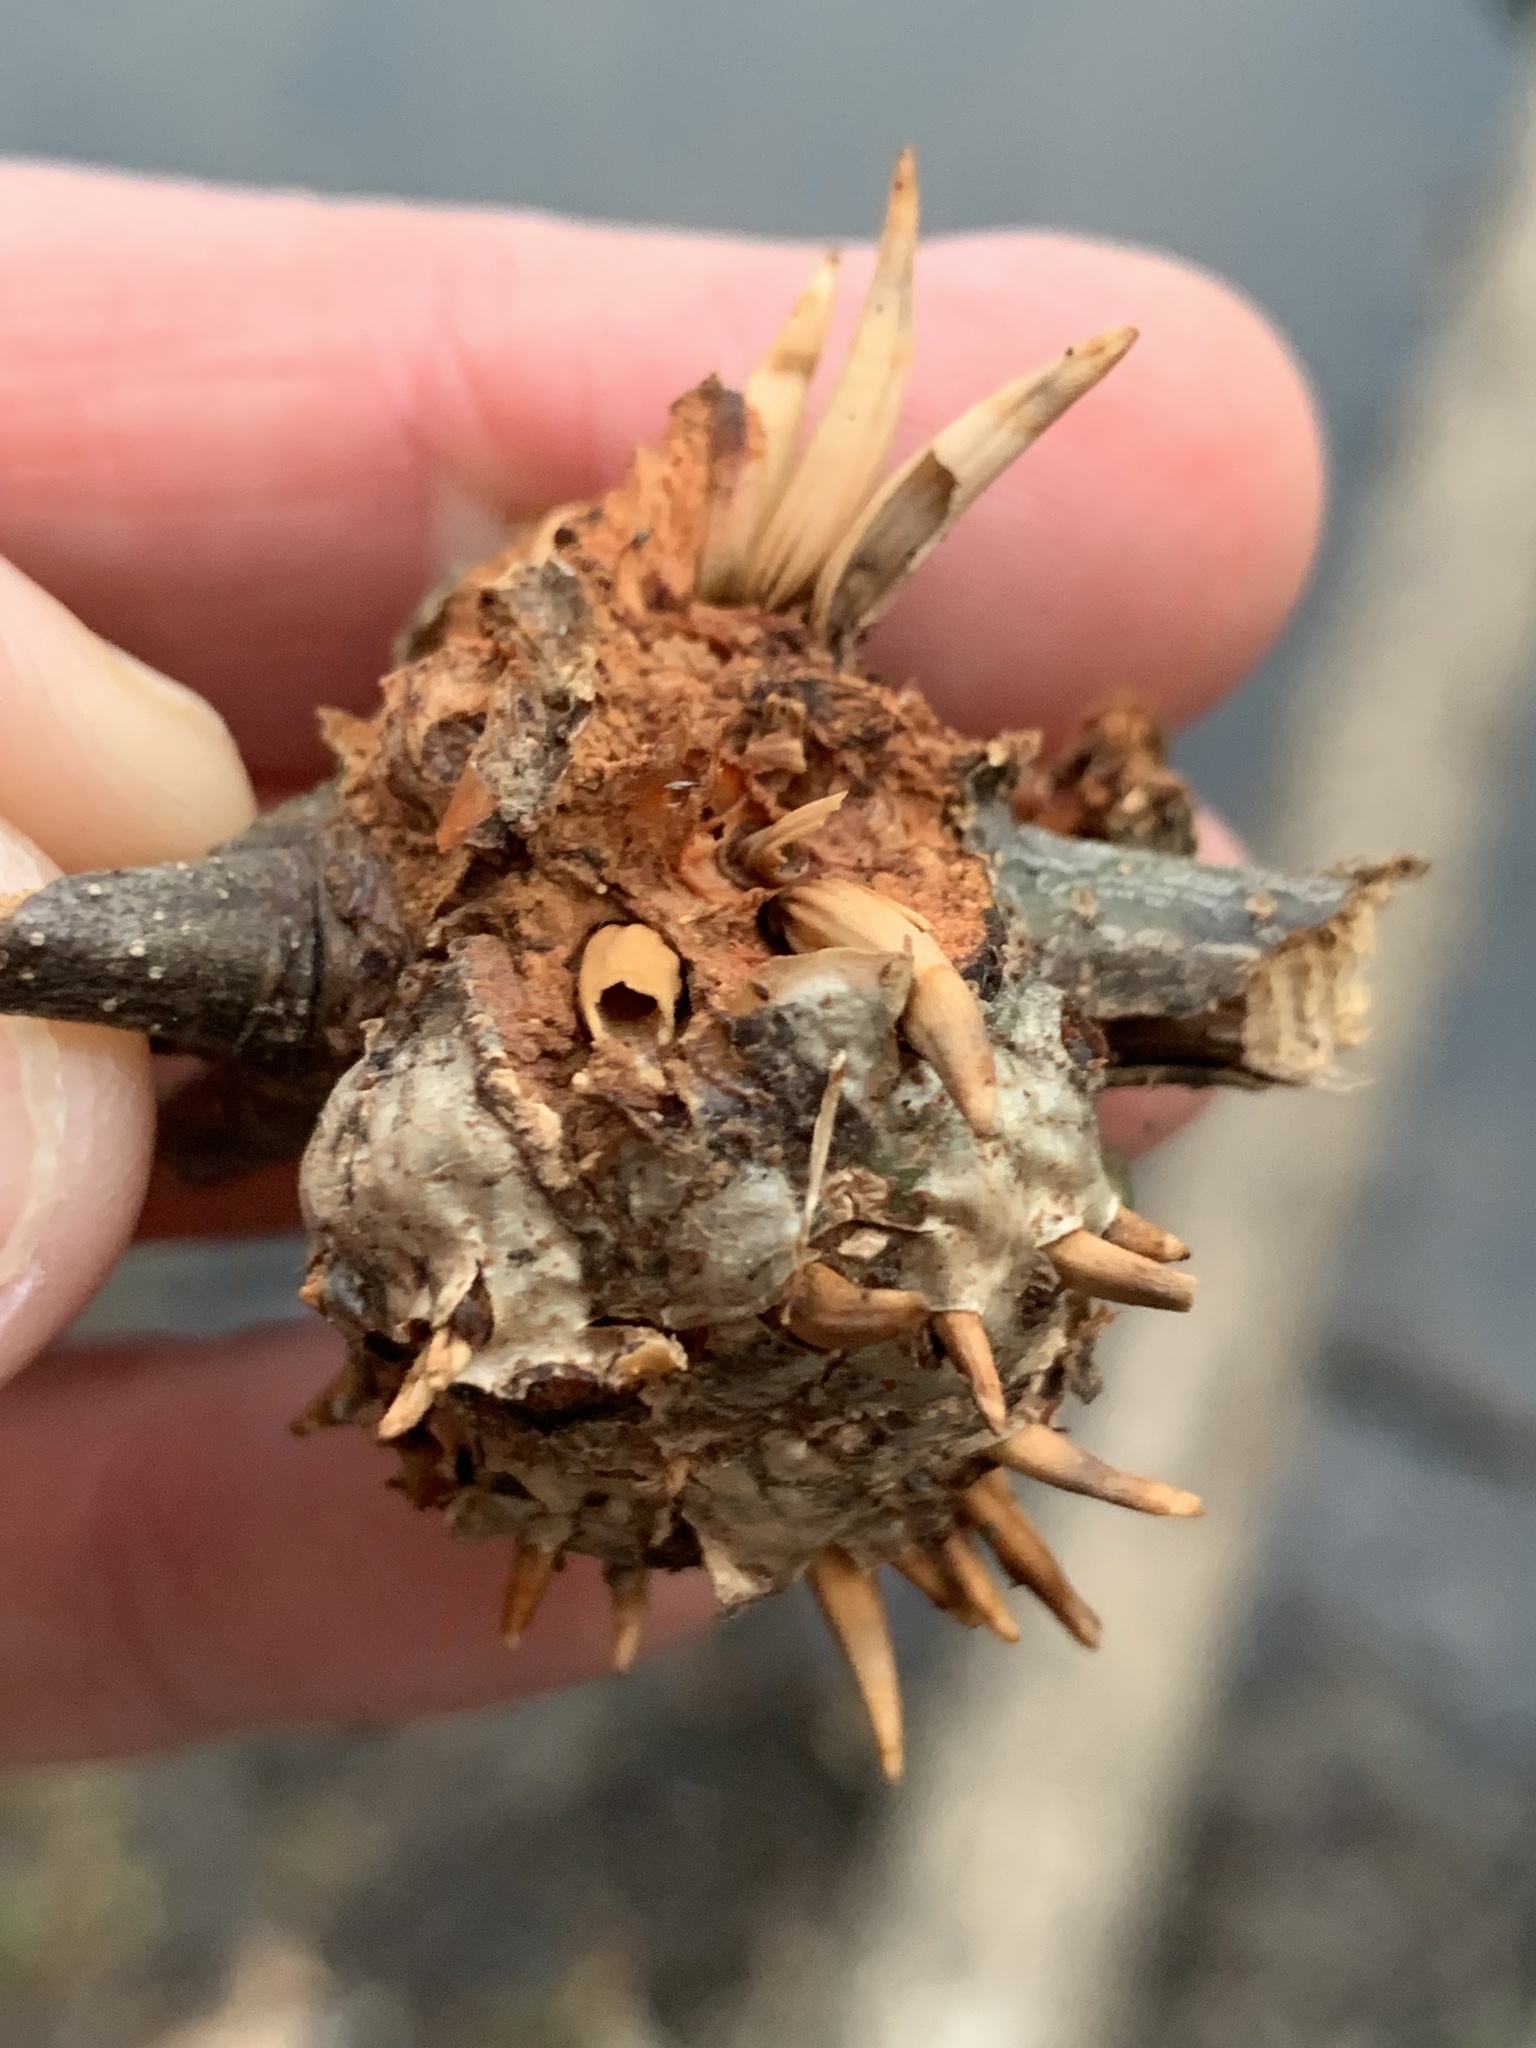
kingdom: Animalia
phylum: Arthropoda
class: Insecta
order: Hymenoptera
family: Cynipidae
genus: Callirhytis
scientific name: Callirhytis
